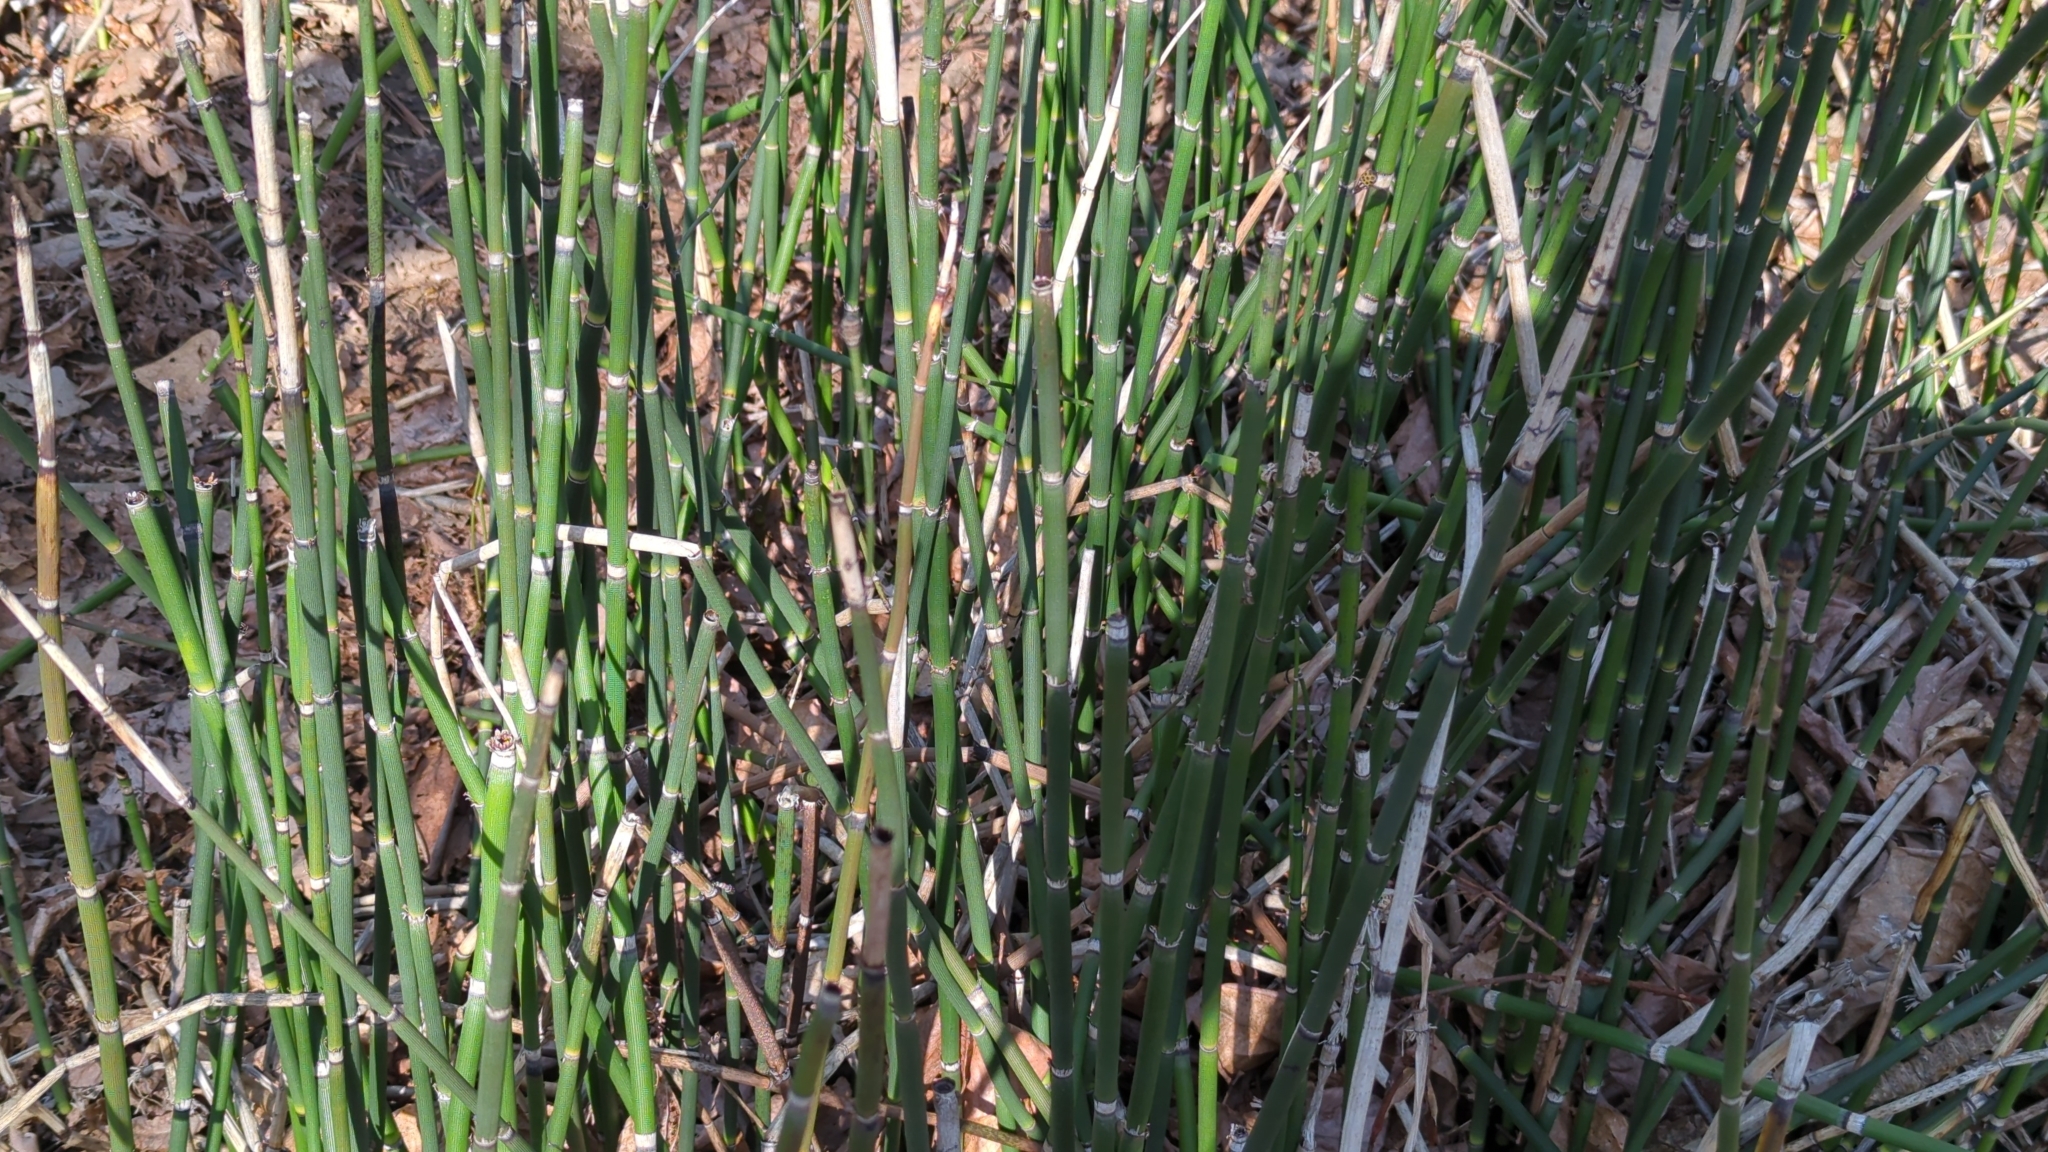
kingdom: Plantae
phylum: Tracheophyta
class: Polypodiopsida
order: Equisetales
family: Equisetaceae
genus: Equisetum
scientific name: Equisetum hyemale
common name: Rough horsetail
